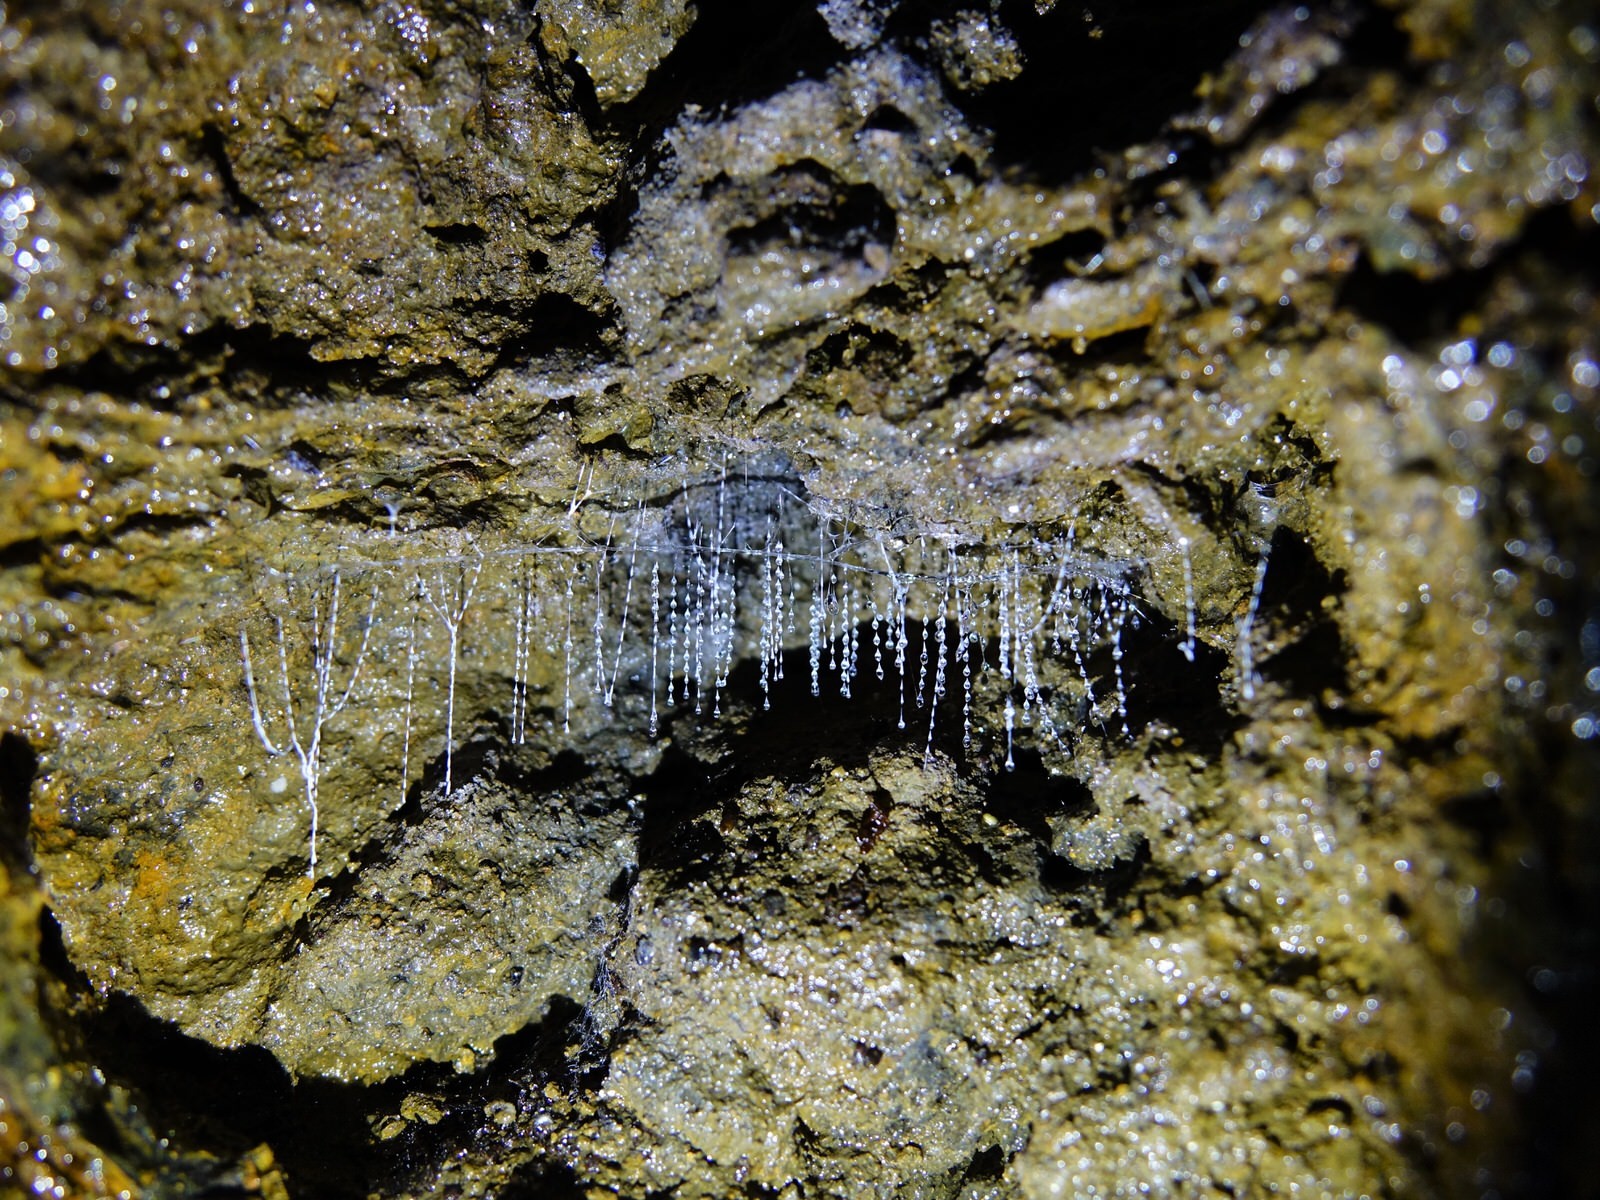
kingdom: Animalia
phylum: Arthropoda
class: Insecta
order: Diptera
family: Keroplatidae
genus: Arachnocampa
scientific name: Arachnocampa luminosa
